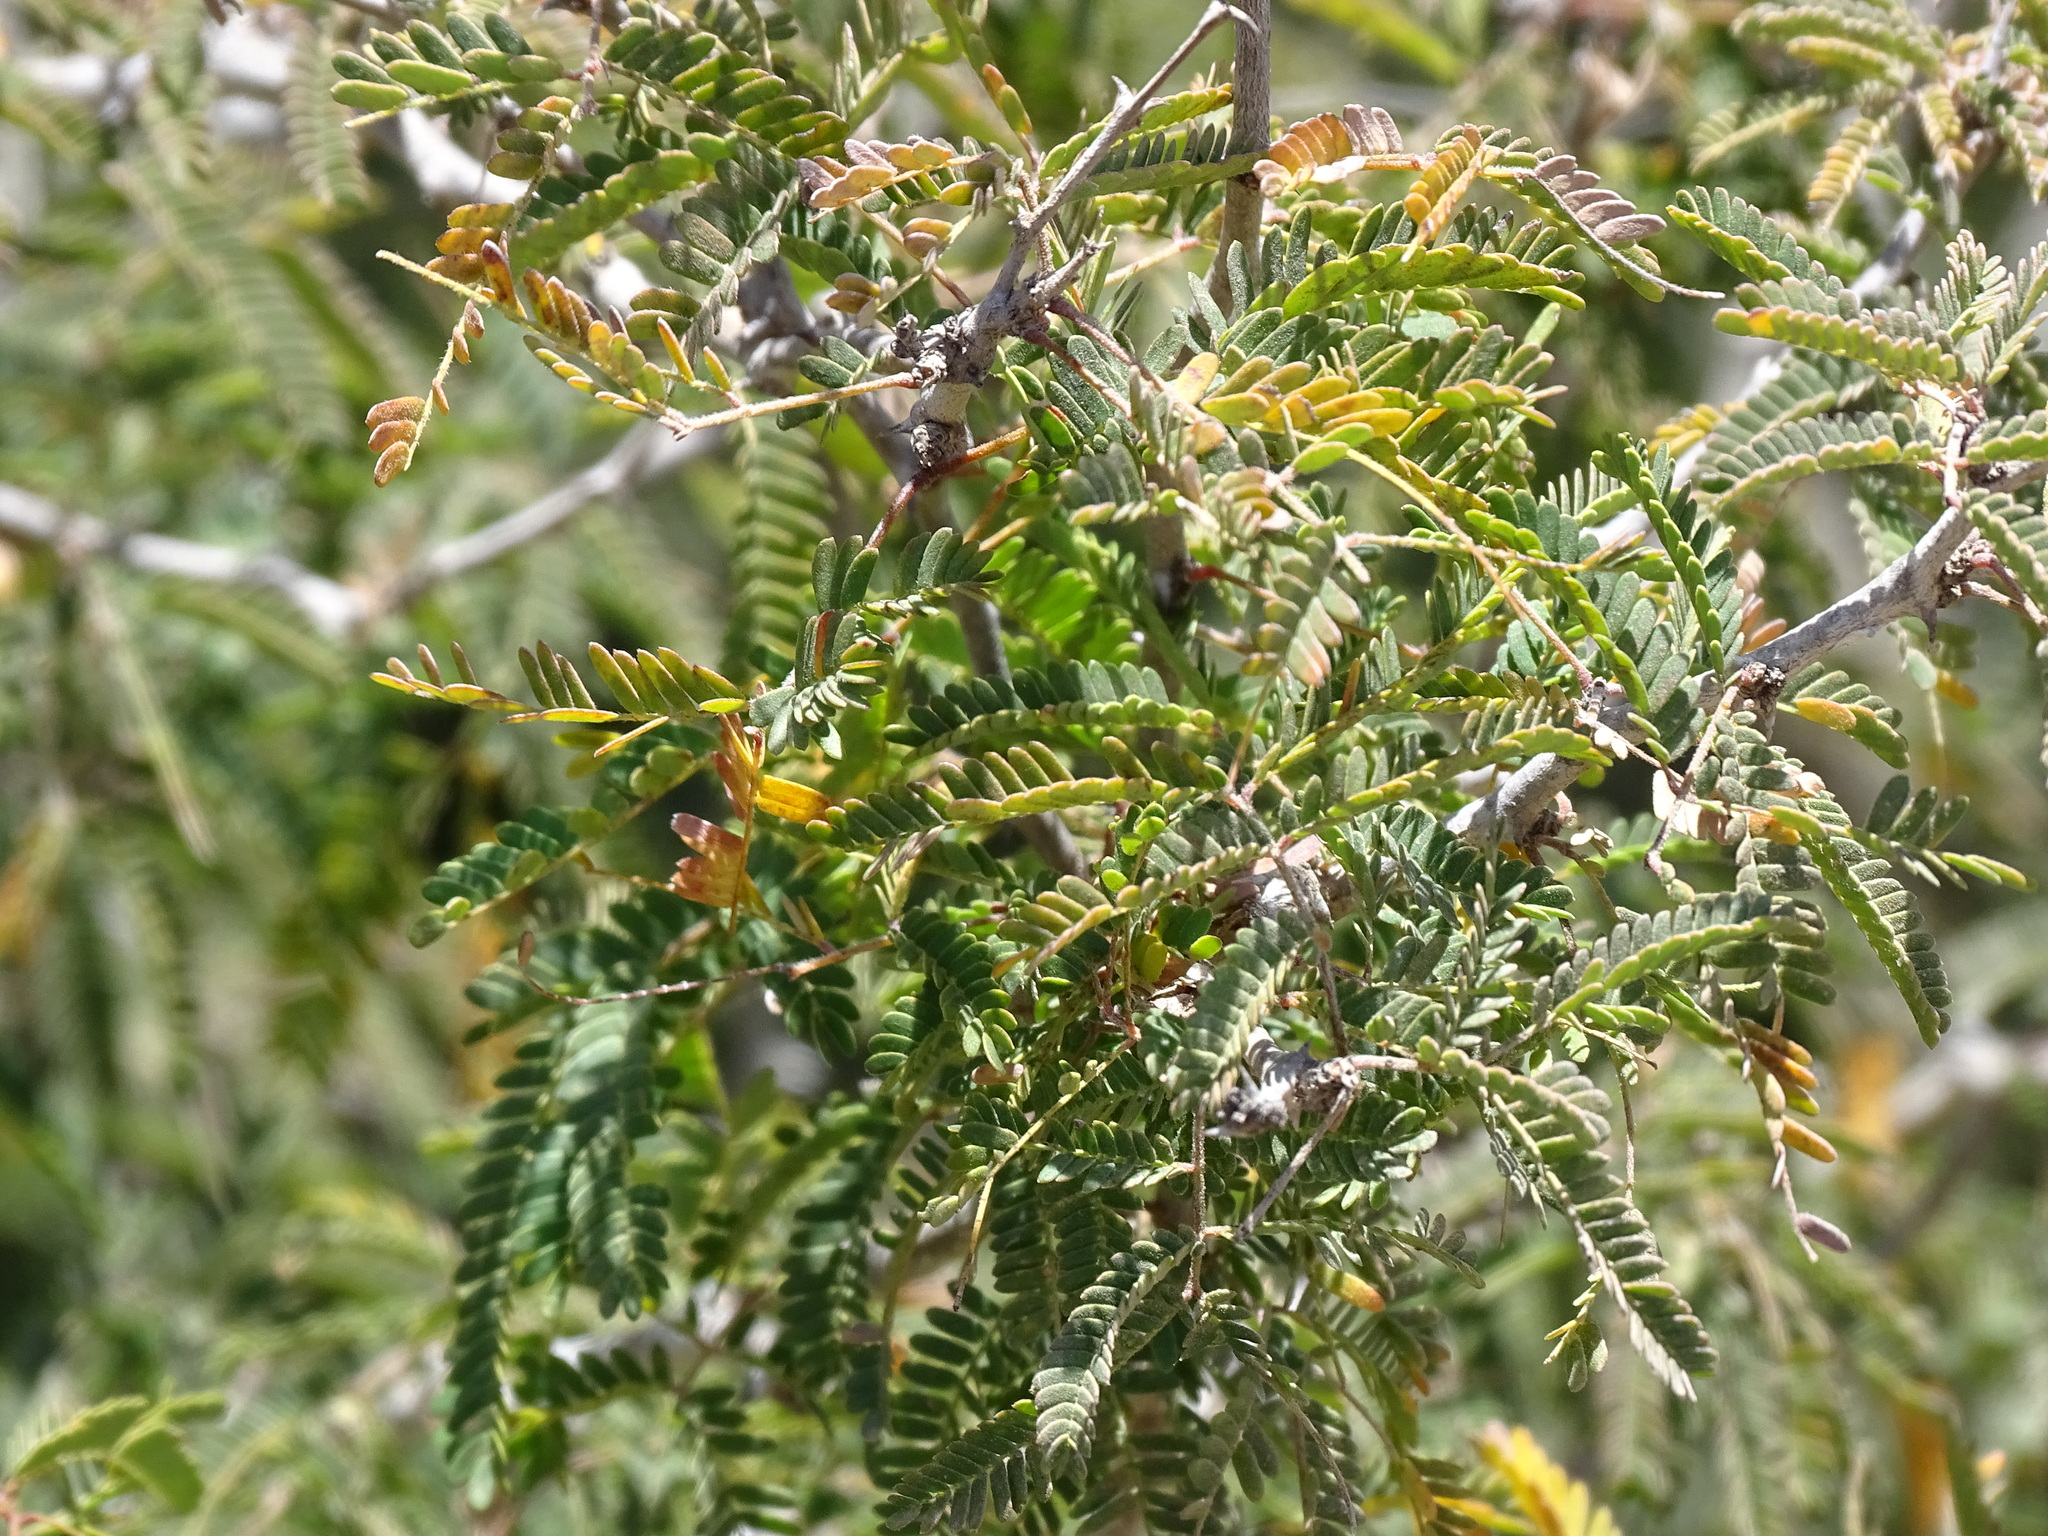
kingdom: Plantae
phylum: Tracheophyta
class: Magnoliopsida
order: Fabales
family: Fabaceae
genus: Havardia
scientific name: Havardia sonorae
